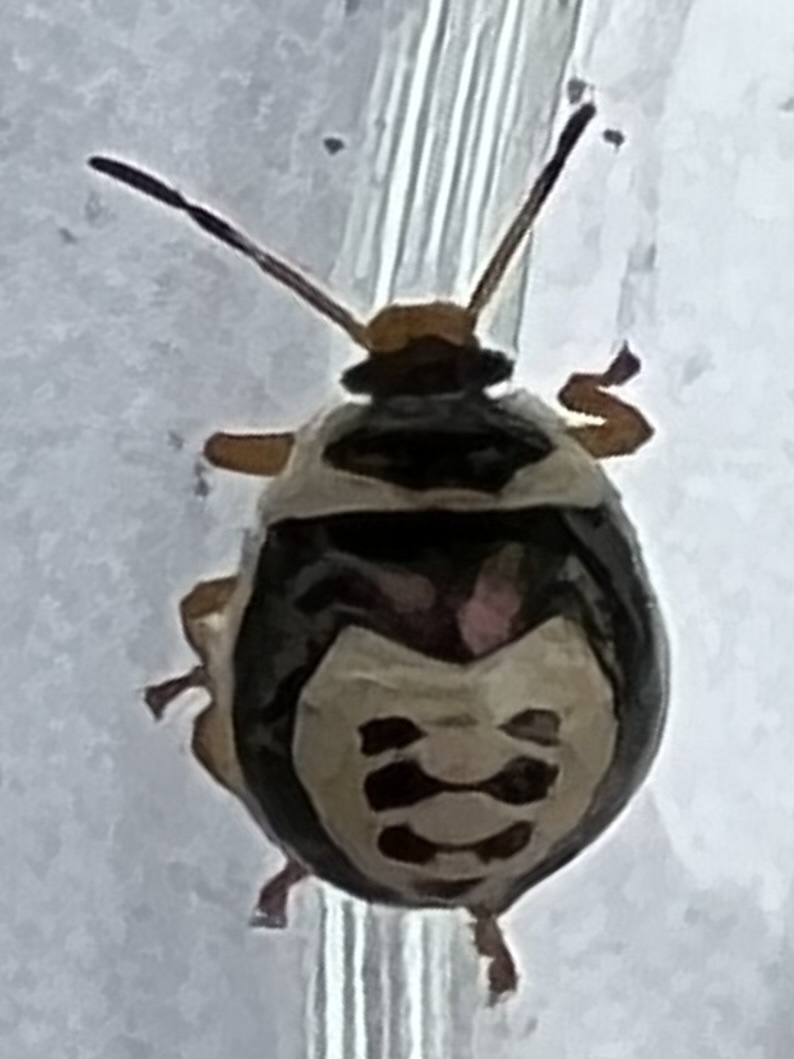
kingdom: Animalia
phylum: Arthropoda
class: Insecta
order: Hemiptera
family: Pentatomidae
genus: Stiretrus
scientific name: Stiretrus anchorago
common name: Anchor stink bug
